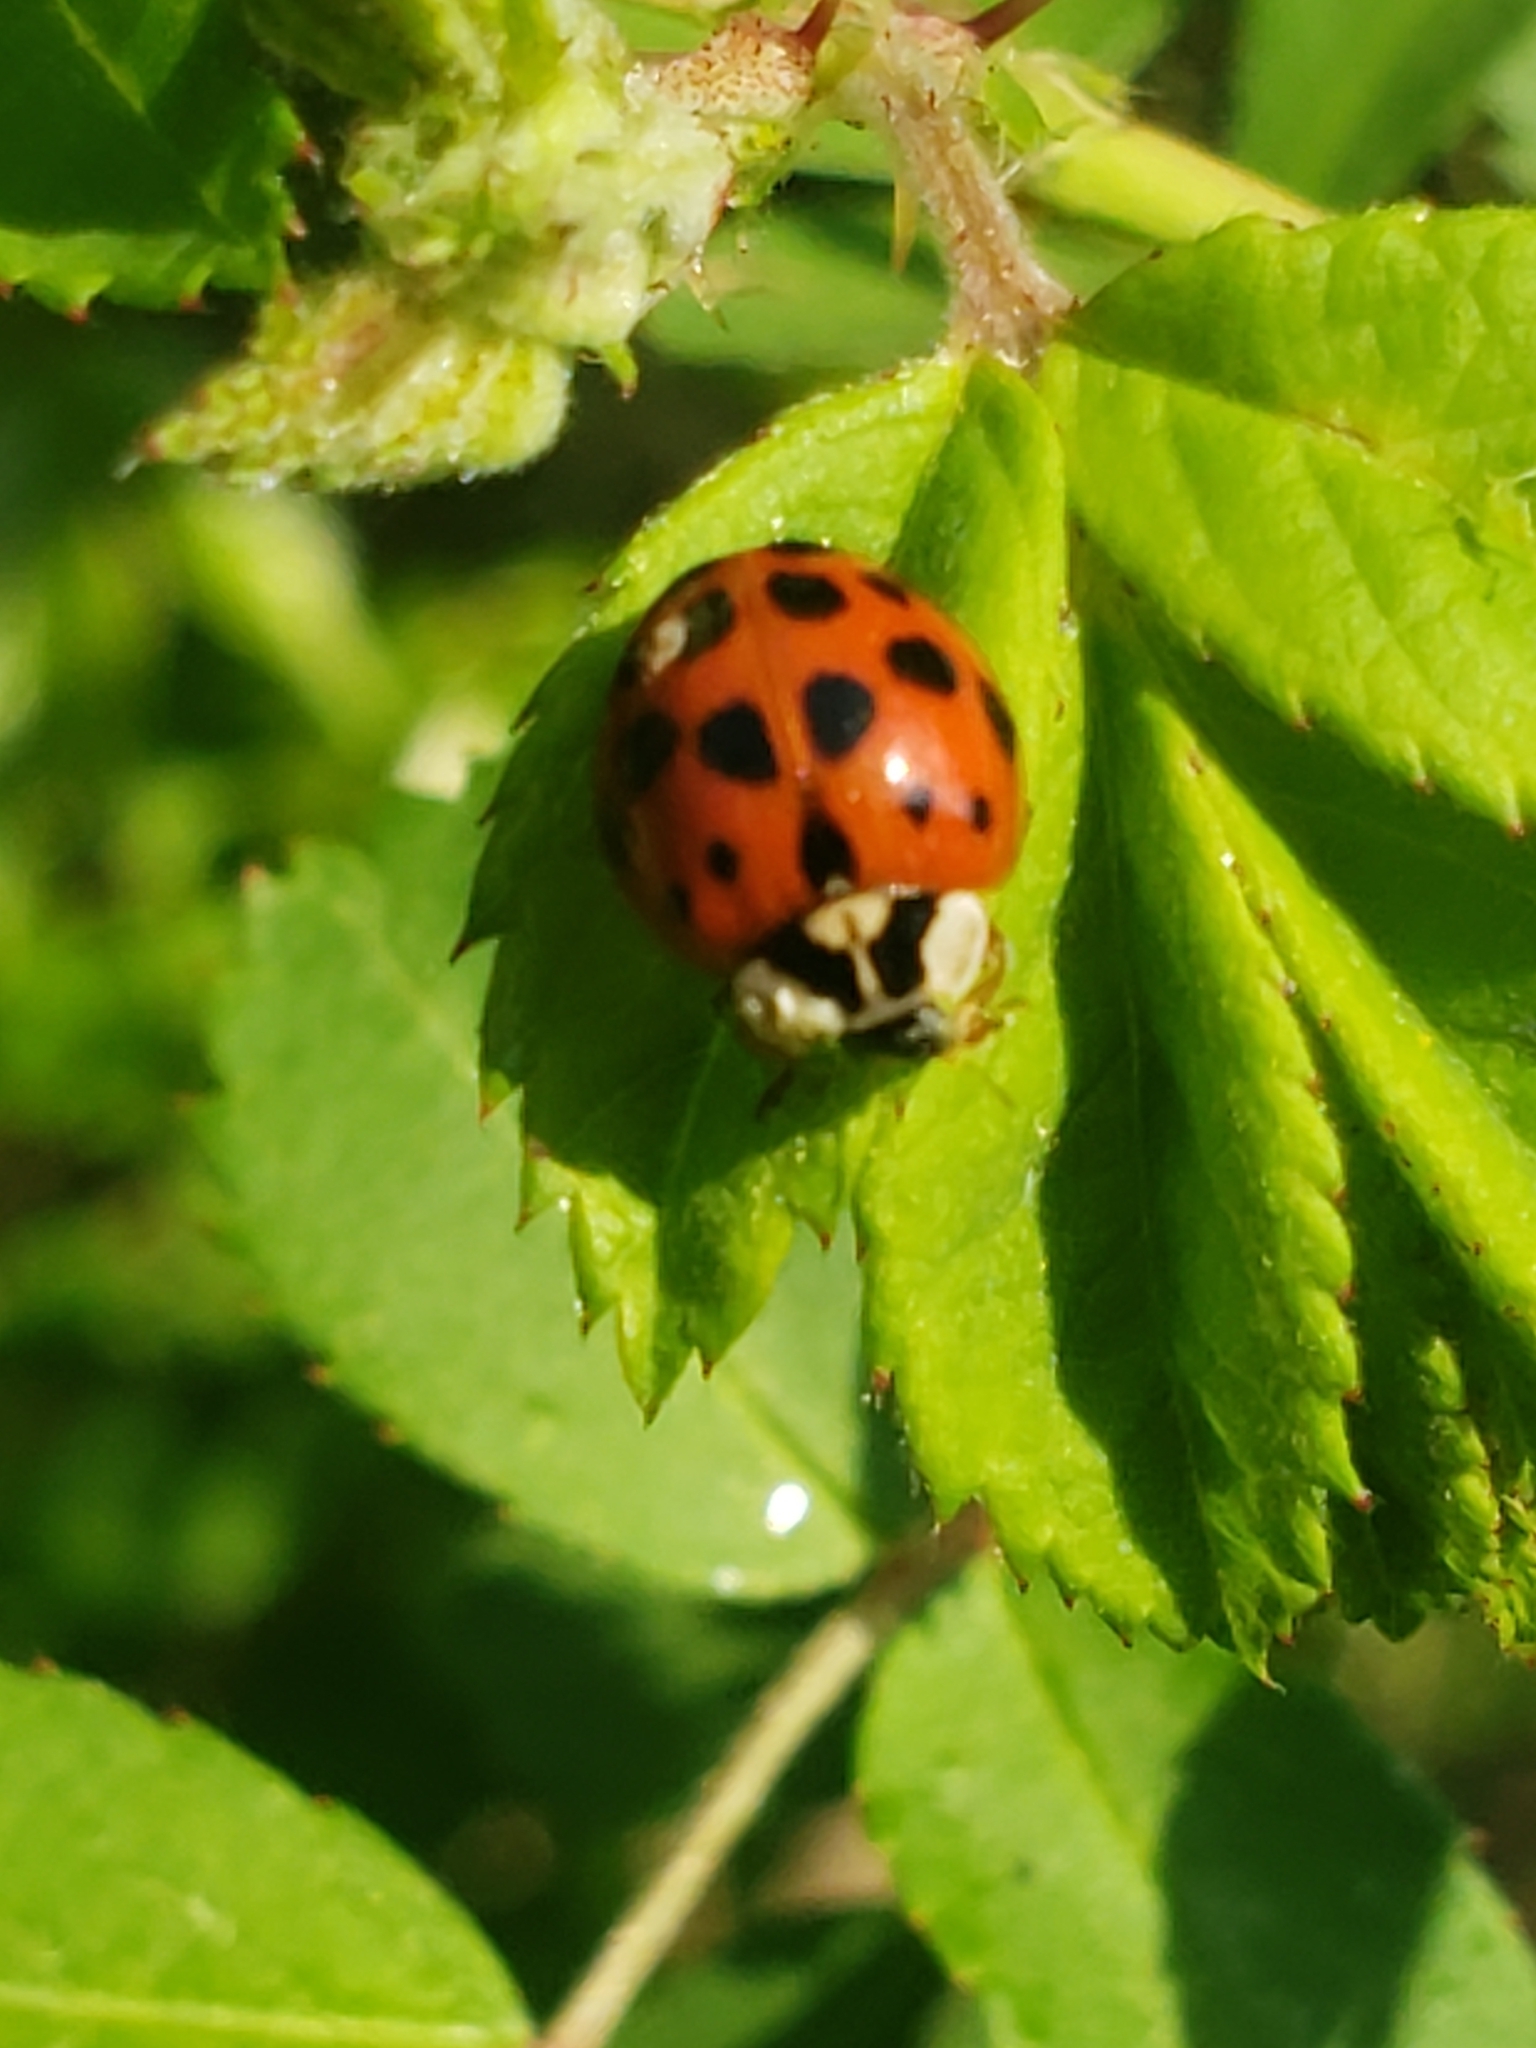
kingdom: Animalia
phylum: Arthropoda
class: Insecta
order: Coleoptera
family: Coccinellidae
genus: Harmonia
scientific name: Harmonia axyridis
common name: Harlequin ladybird
